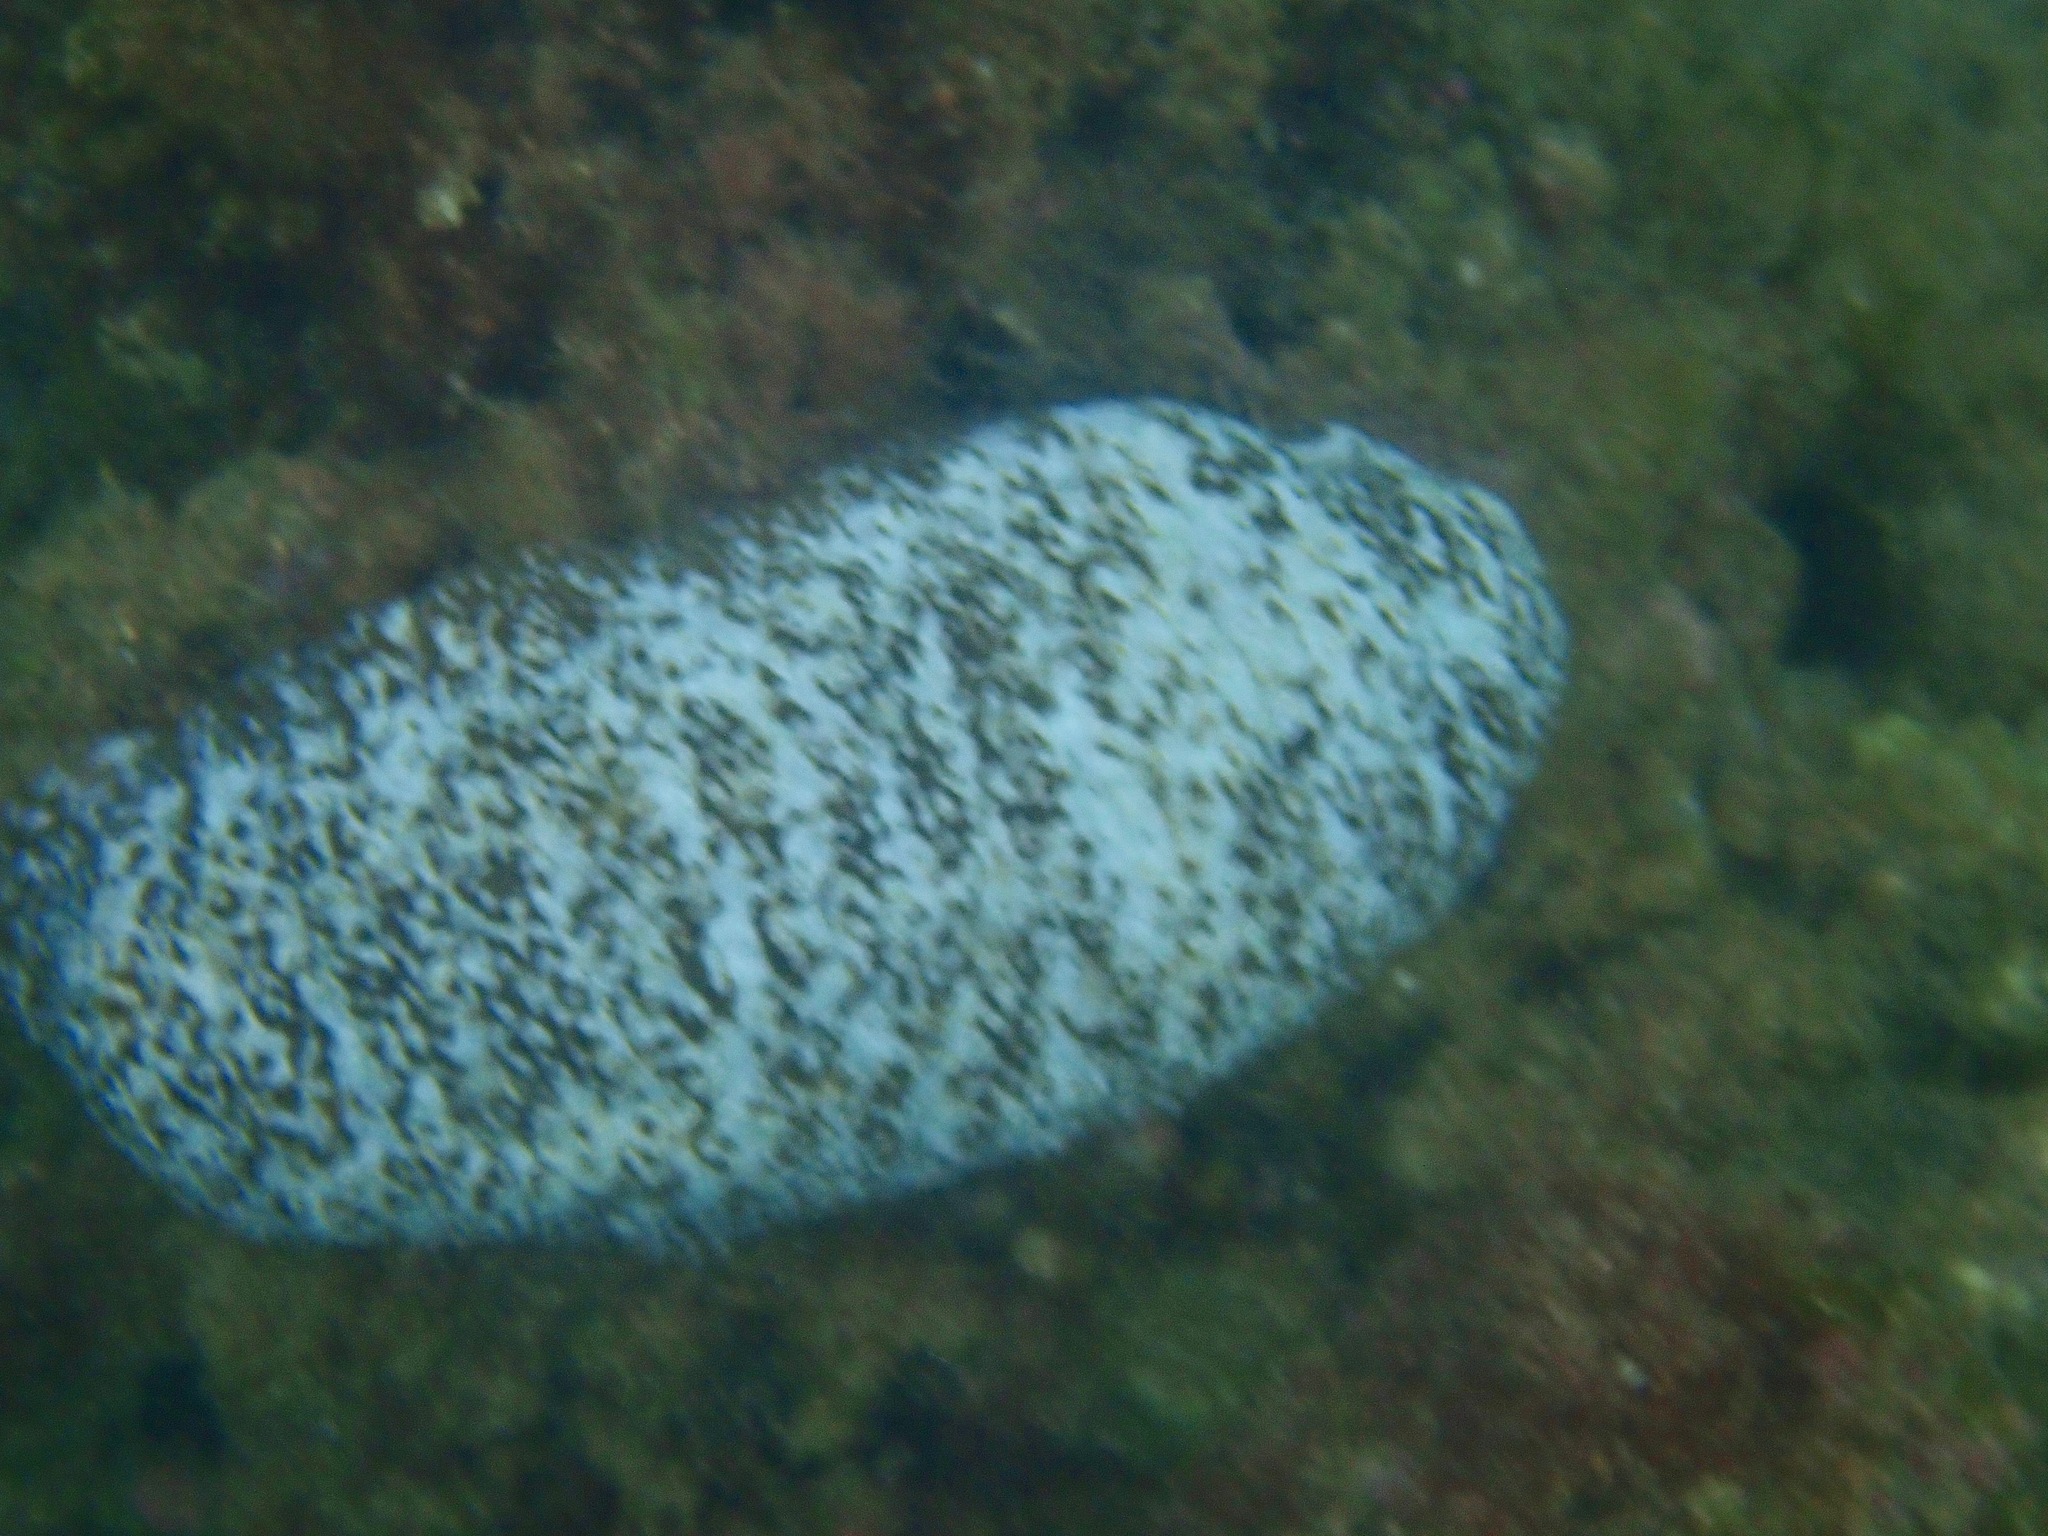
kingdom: Animalia
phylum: Echinodermata
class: Holothuroidea
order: Holothuriida
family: Holothuriidae
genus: Actinopyga
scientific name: Actinopyga varians
